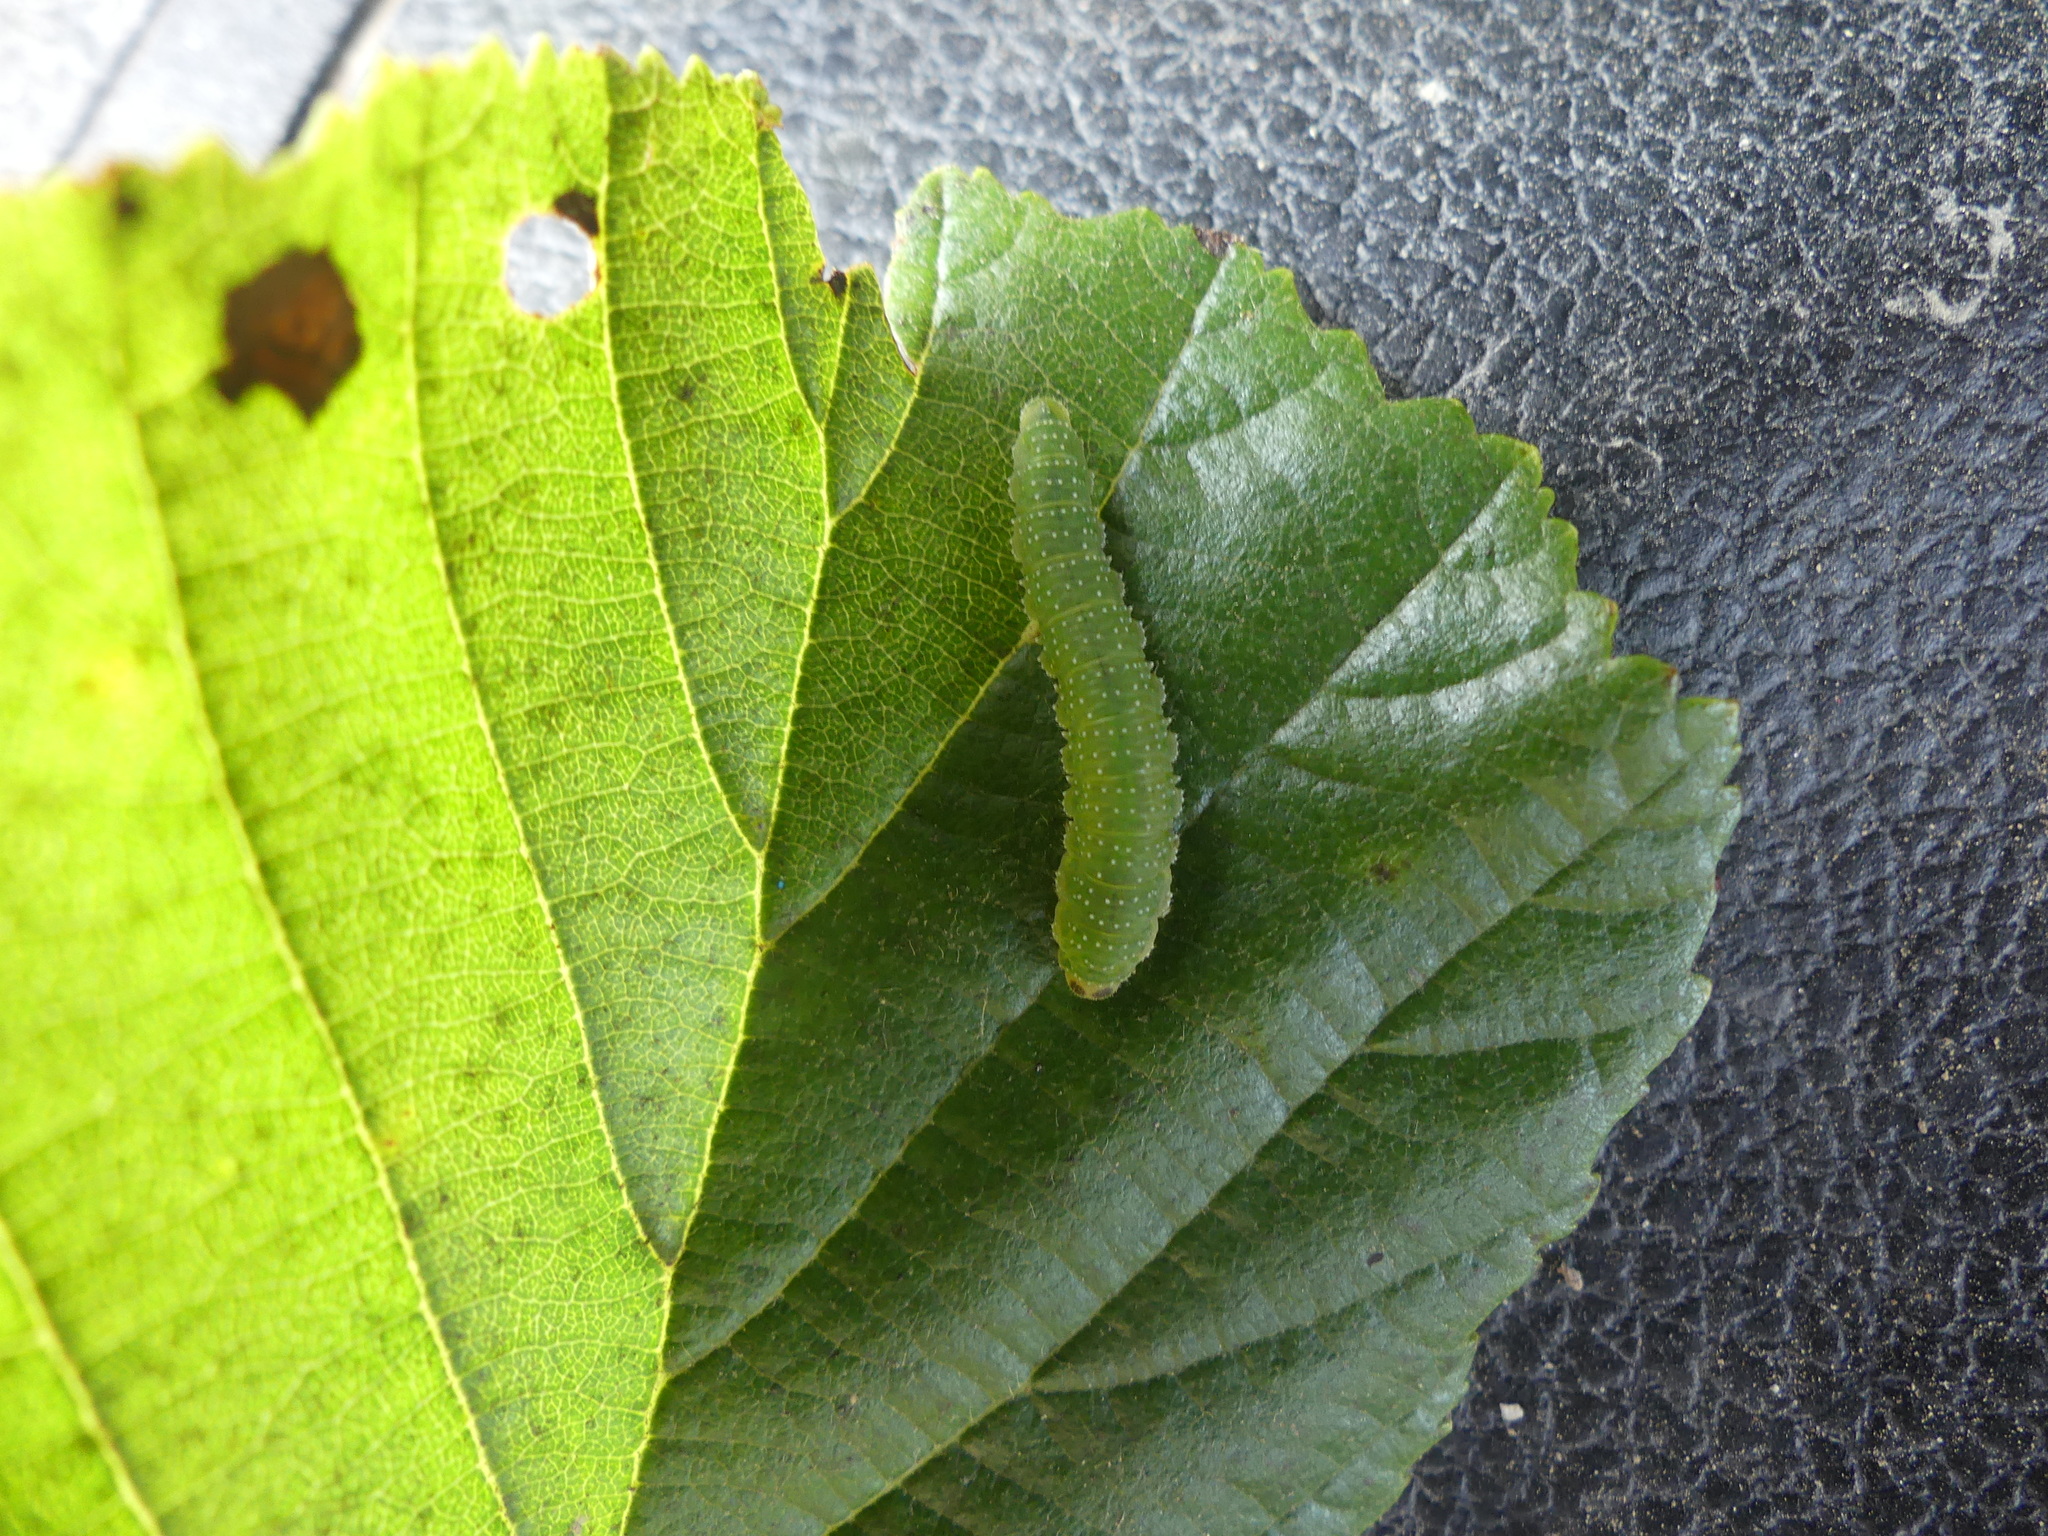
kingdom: Animalia
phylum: Arthropoda
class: Insecta
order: Hymenoptera
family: Tenthredinidae
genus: Nematinus
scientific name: Nematinus steini
